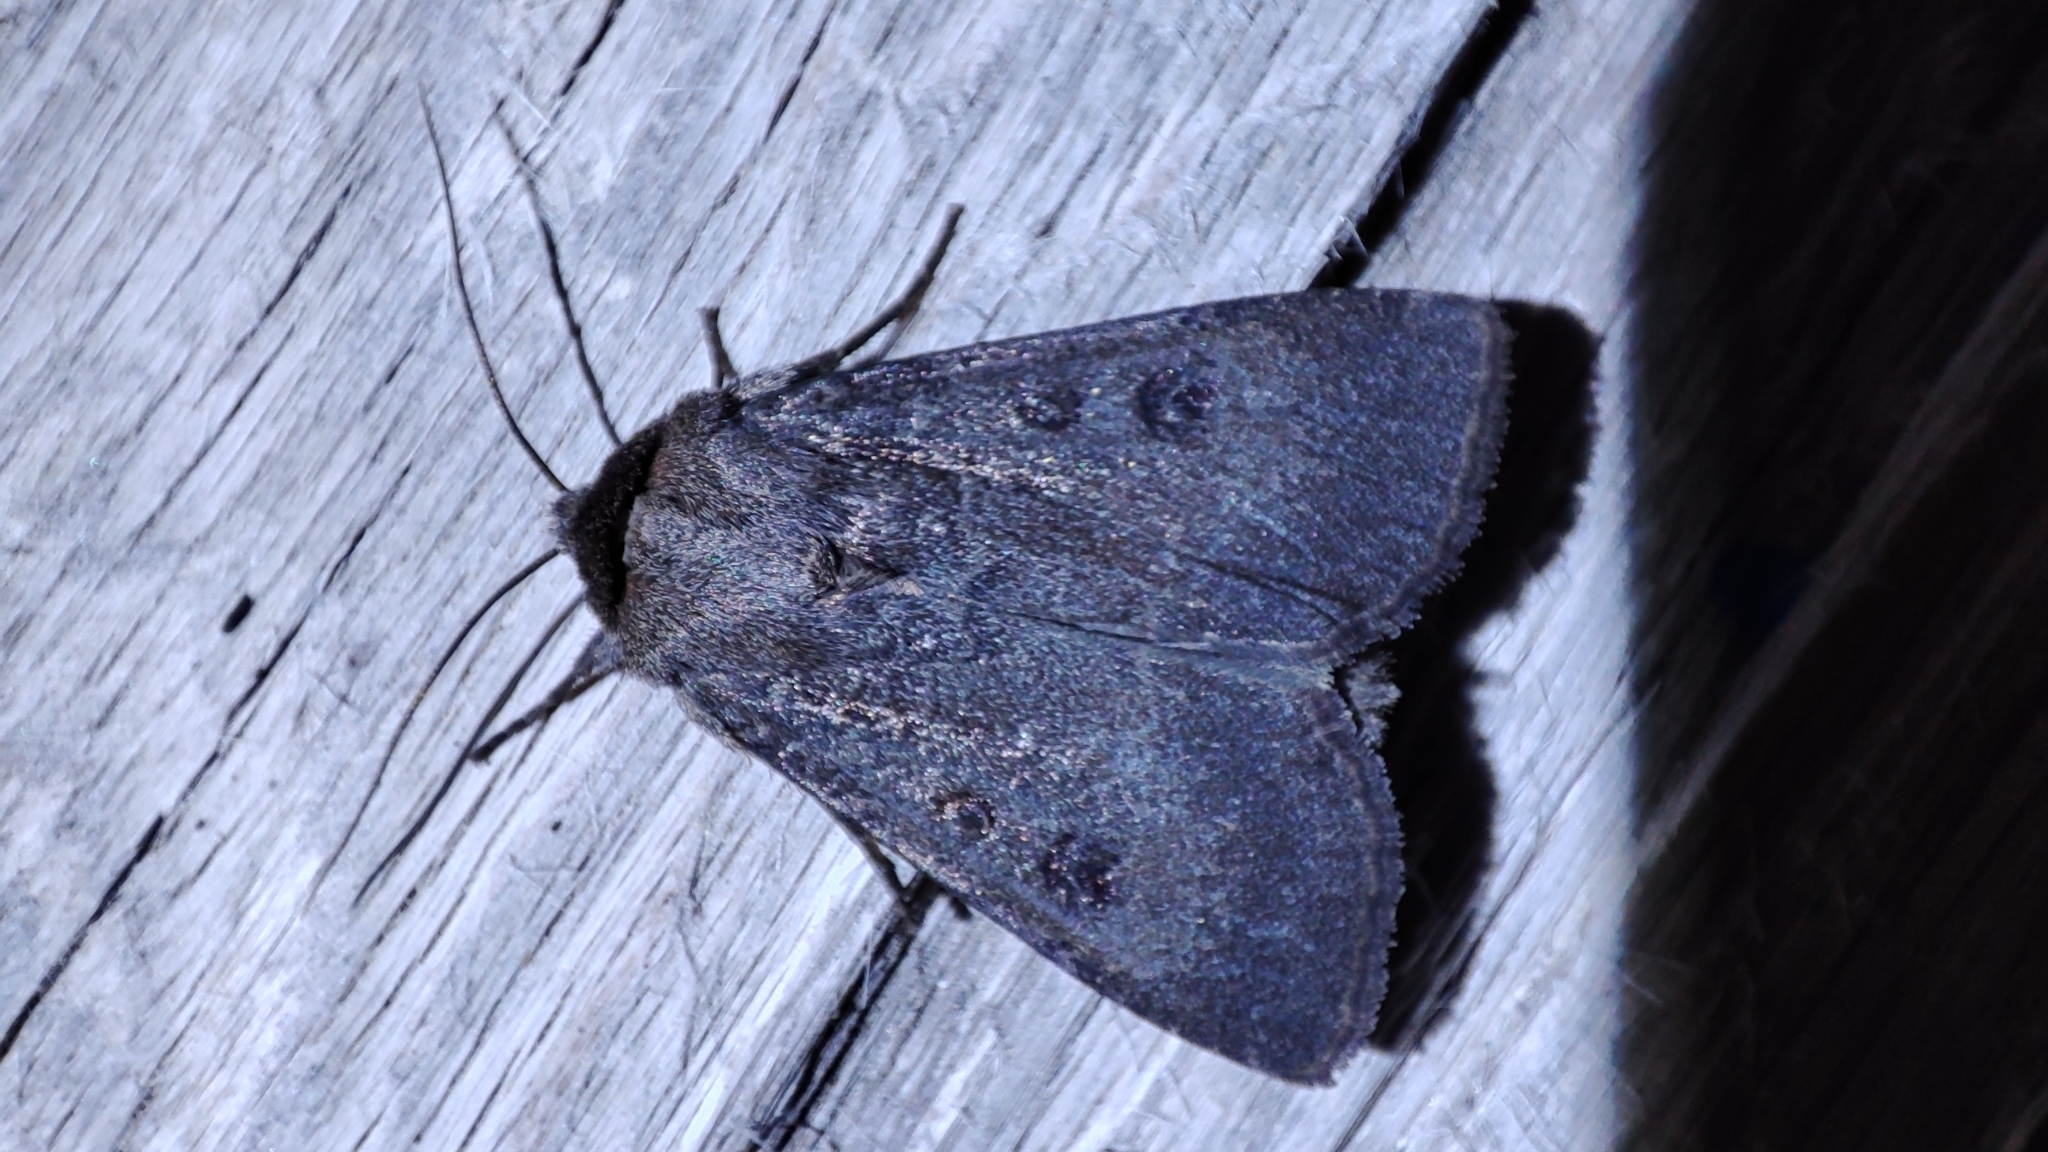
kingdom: Animalia
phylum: Arthropoda
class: Insecta
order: Lepidoptera
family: Noctuidae
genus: Graphiphora
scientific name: Graphiphora augur
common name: Double dart
